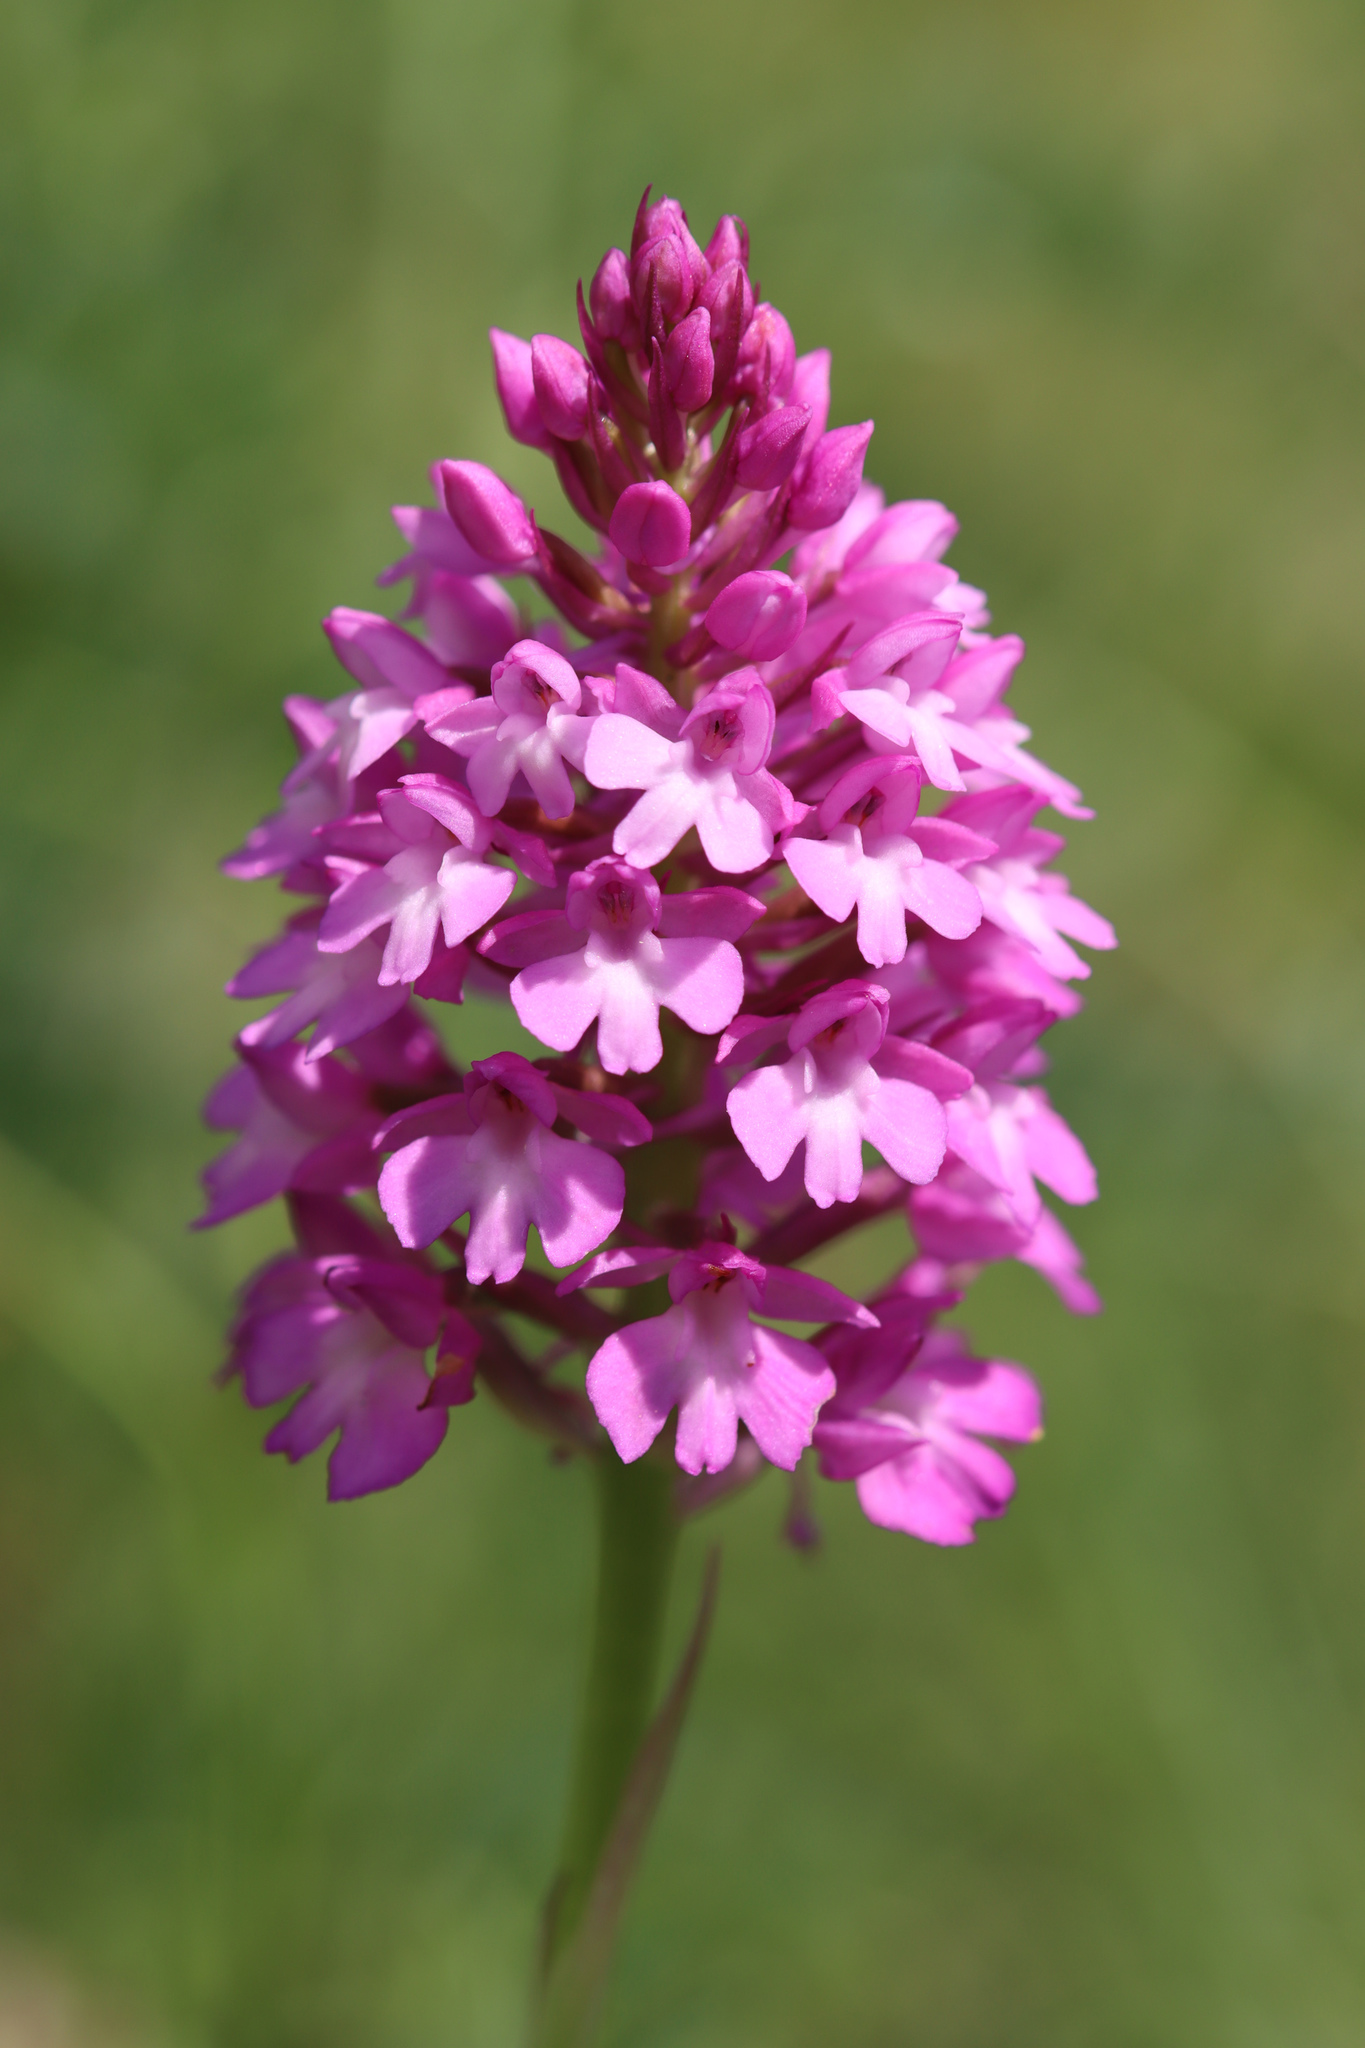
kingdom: Plantae
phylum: Tracheophyta
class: Liliopsida
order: Asparagales
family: Orchidaceae
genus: Anacamptis
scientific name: Anacamptis pyramidalis
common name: Pyramidal orchid
